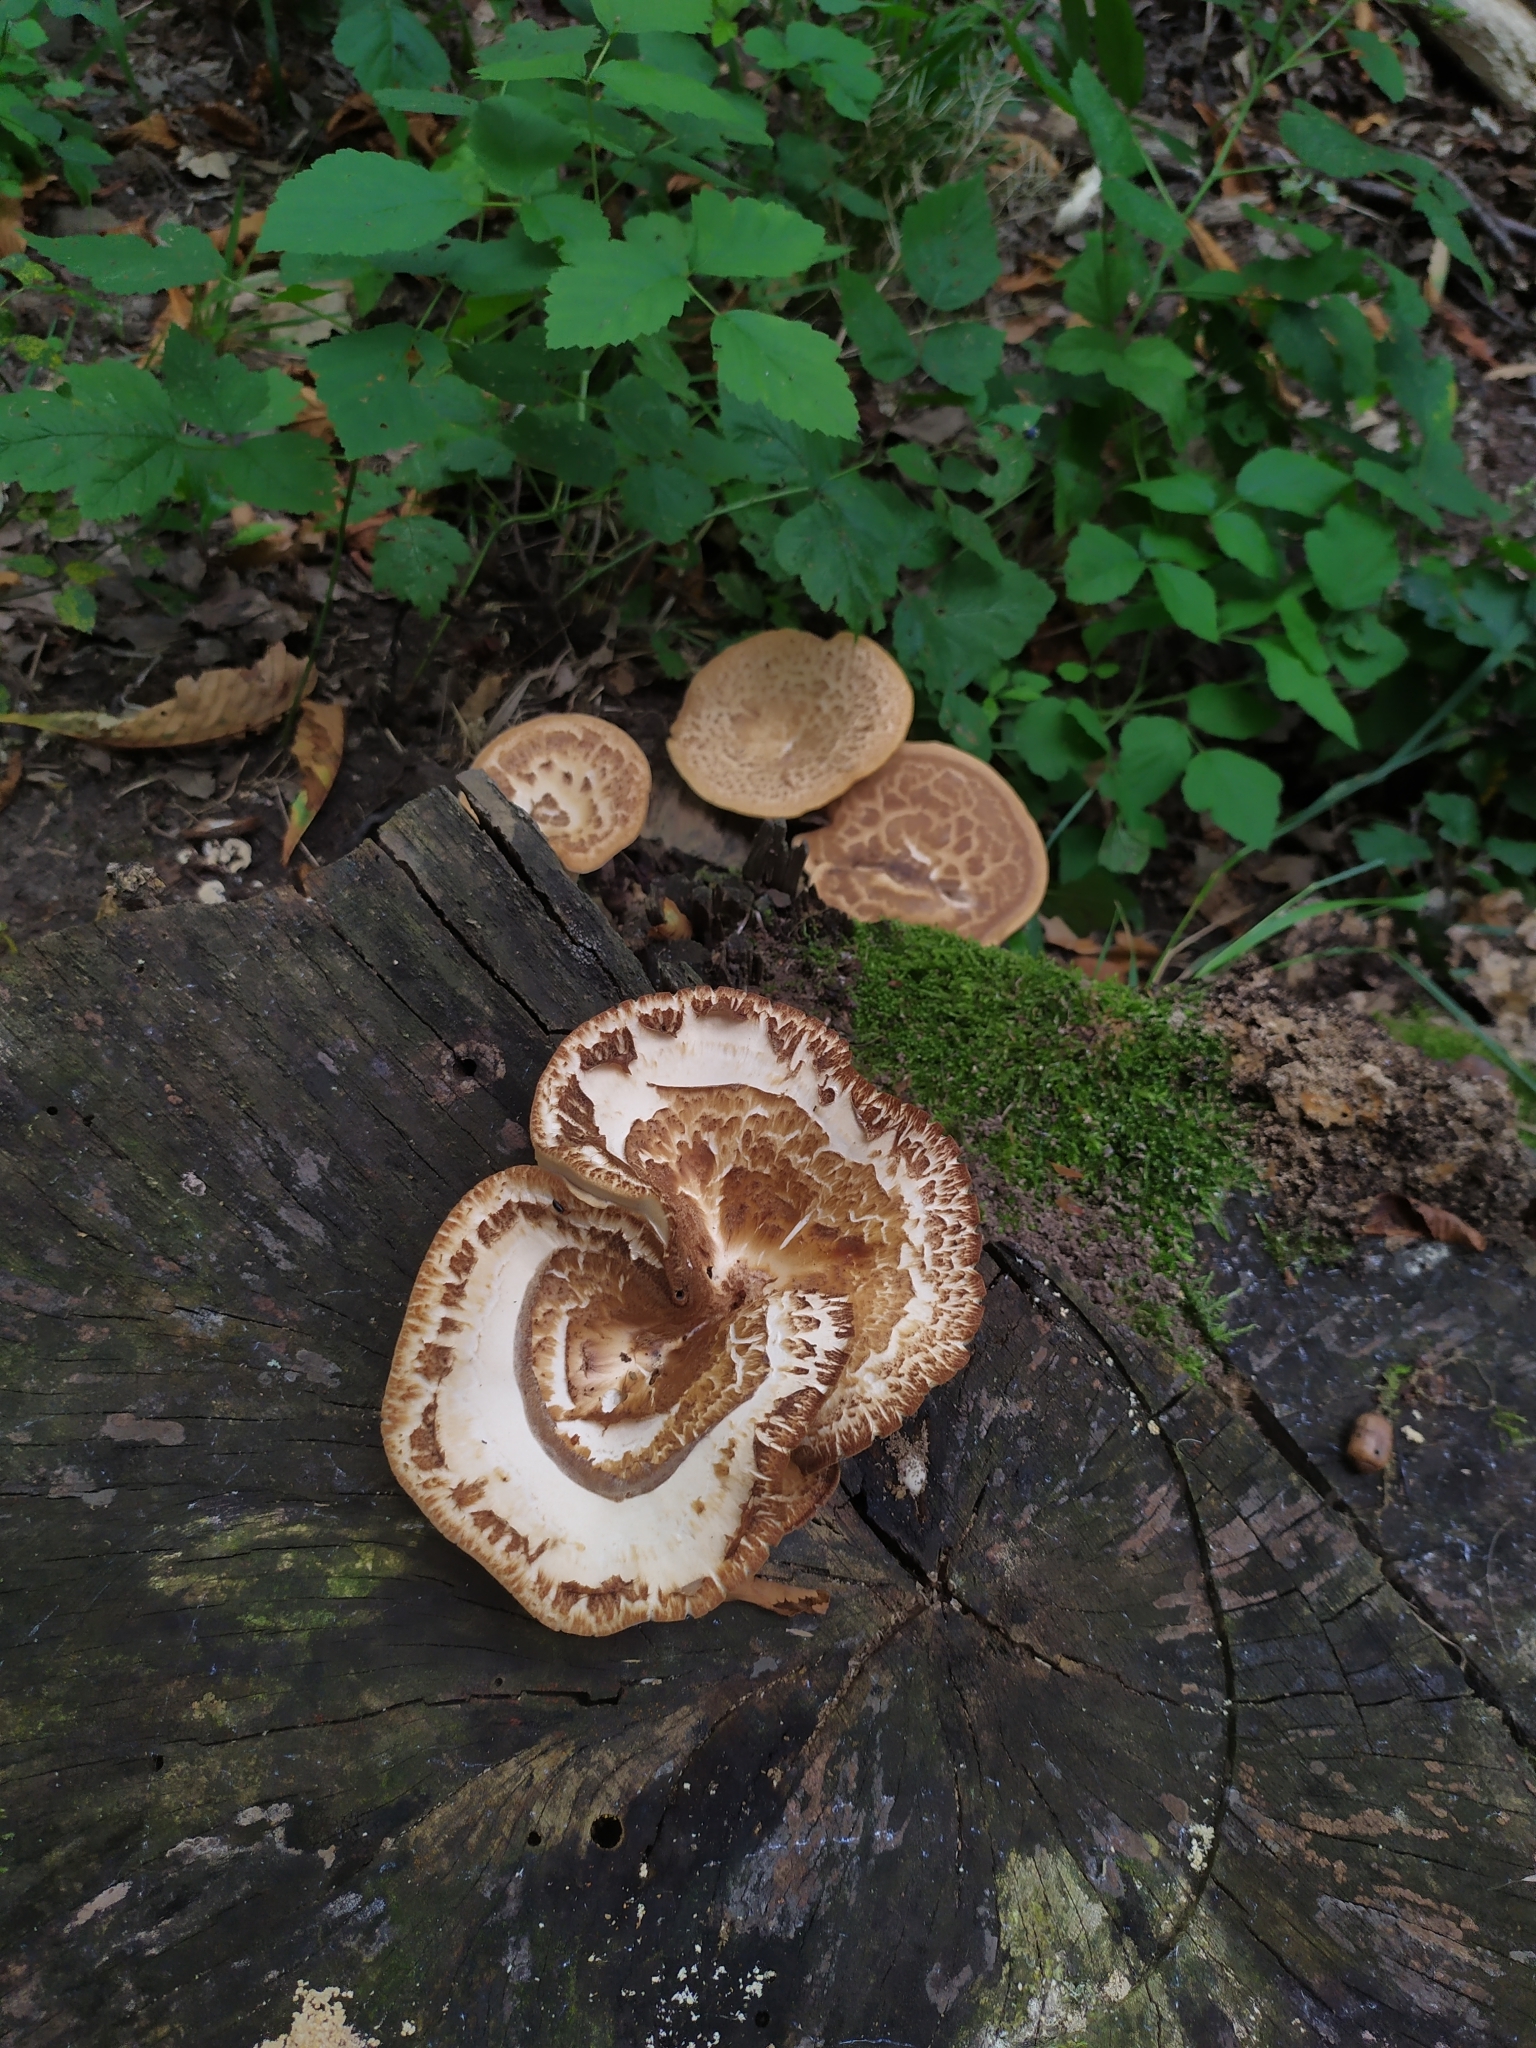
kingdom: Fungi
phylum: Basidiomycota
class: Agaricomycetes
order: Polyporales
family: Polyporaceae
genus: Polyporus
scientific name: Polyporus tuberaster
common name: Tuberous polypore
